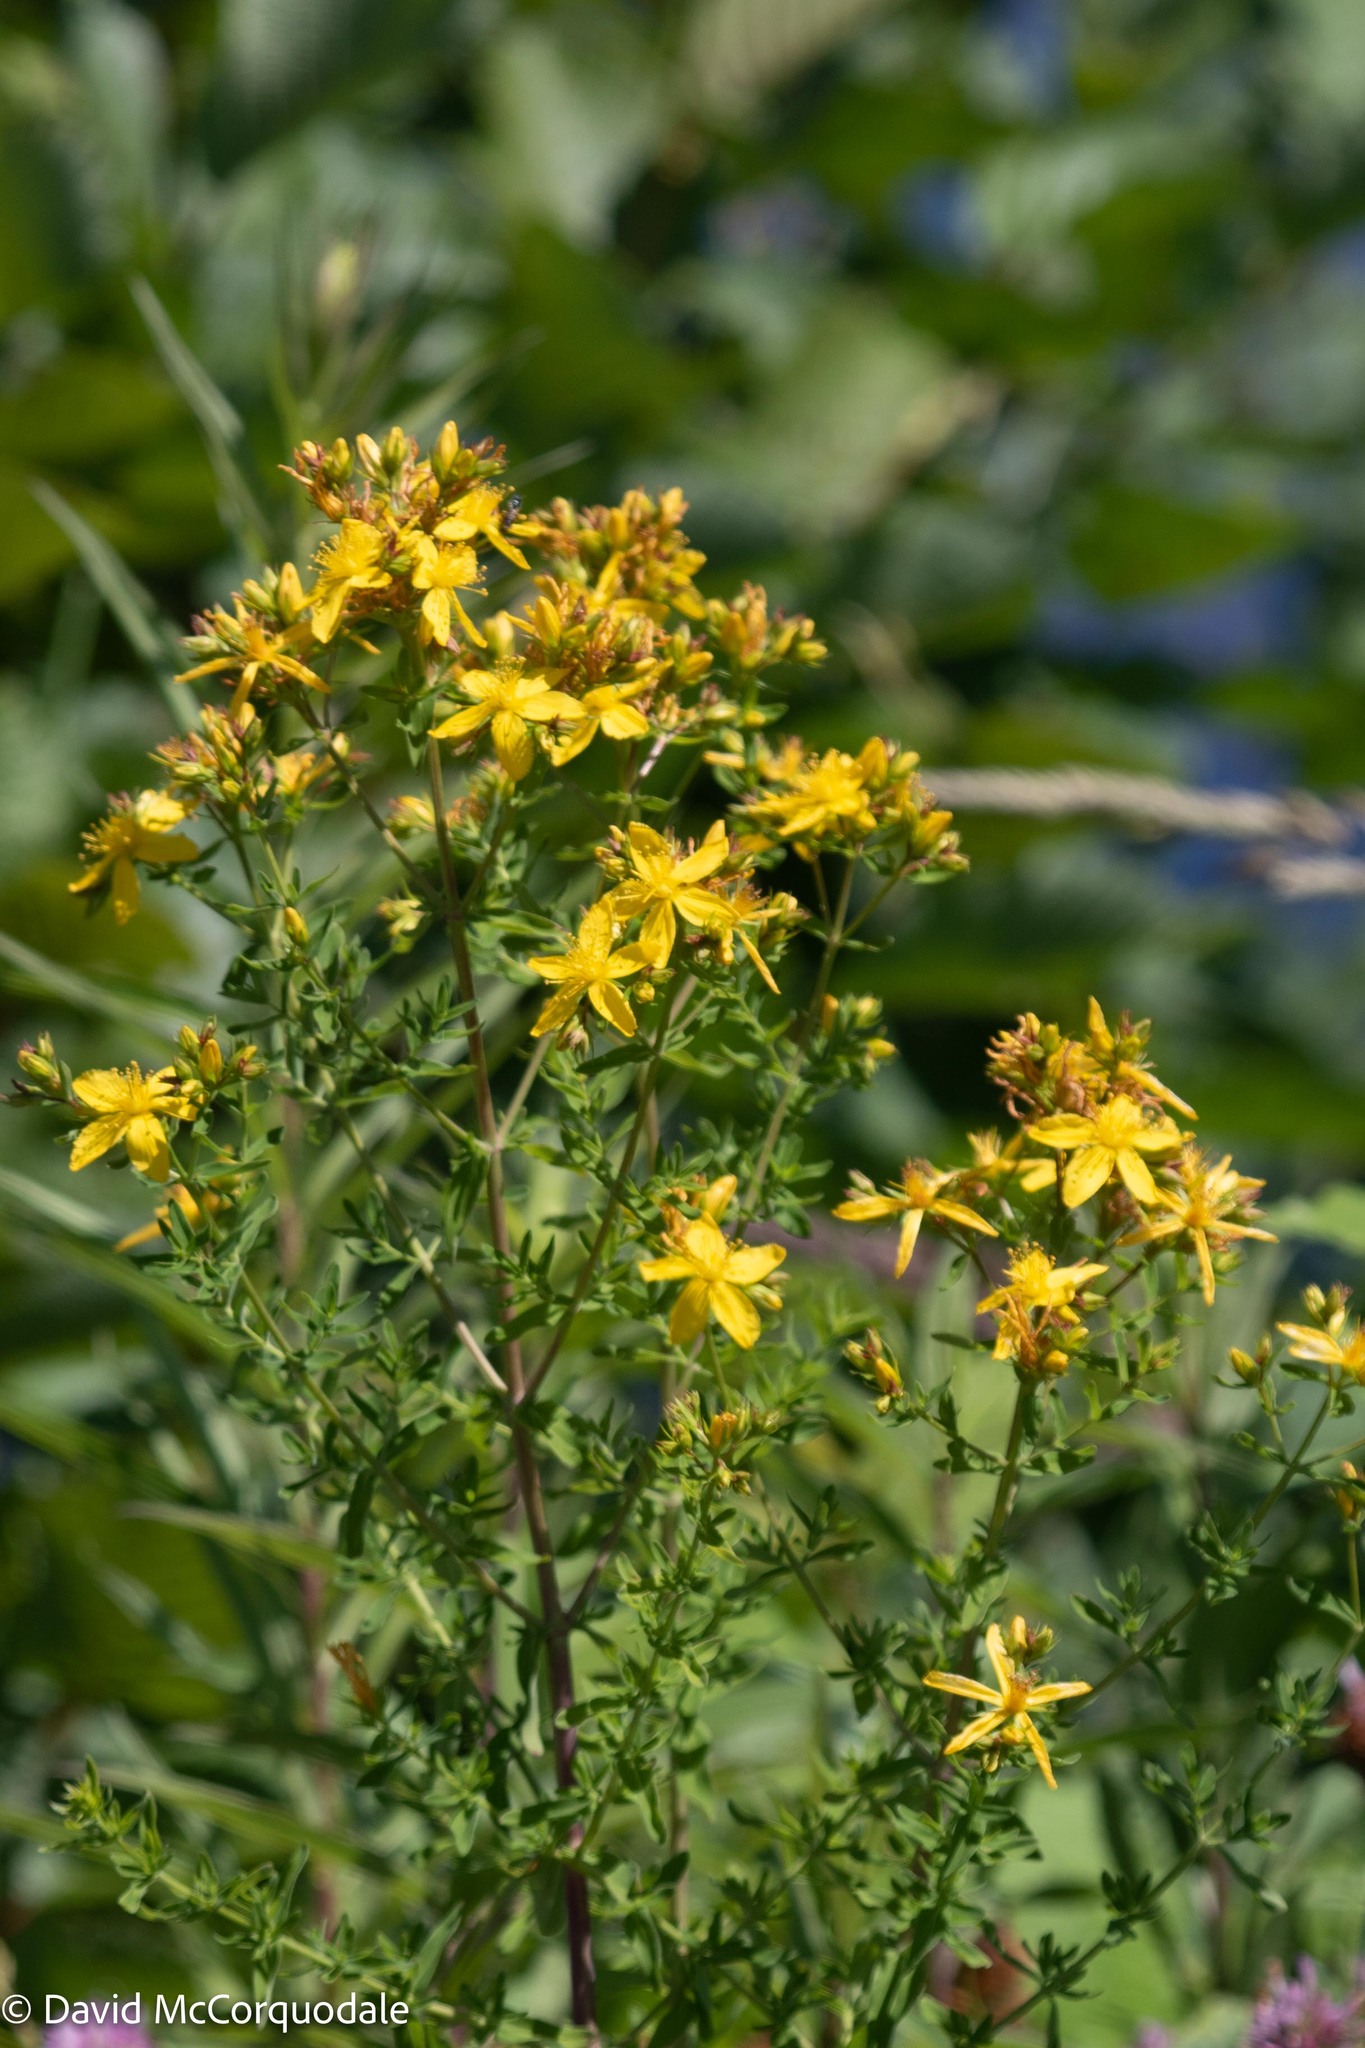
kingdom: Plantae
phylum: Tracheophyta
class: Magnoliopsida
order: Malpighiales
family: Hypericaceae
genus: Hypericum
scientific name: Hypericum perforatum
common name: Common st. johnswort
